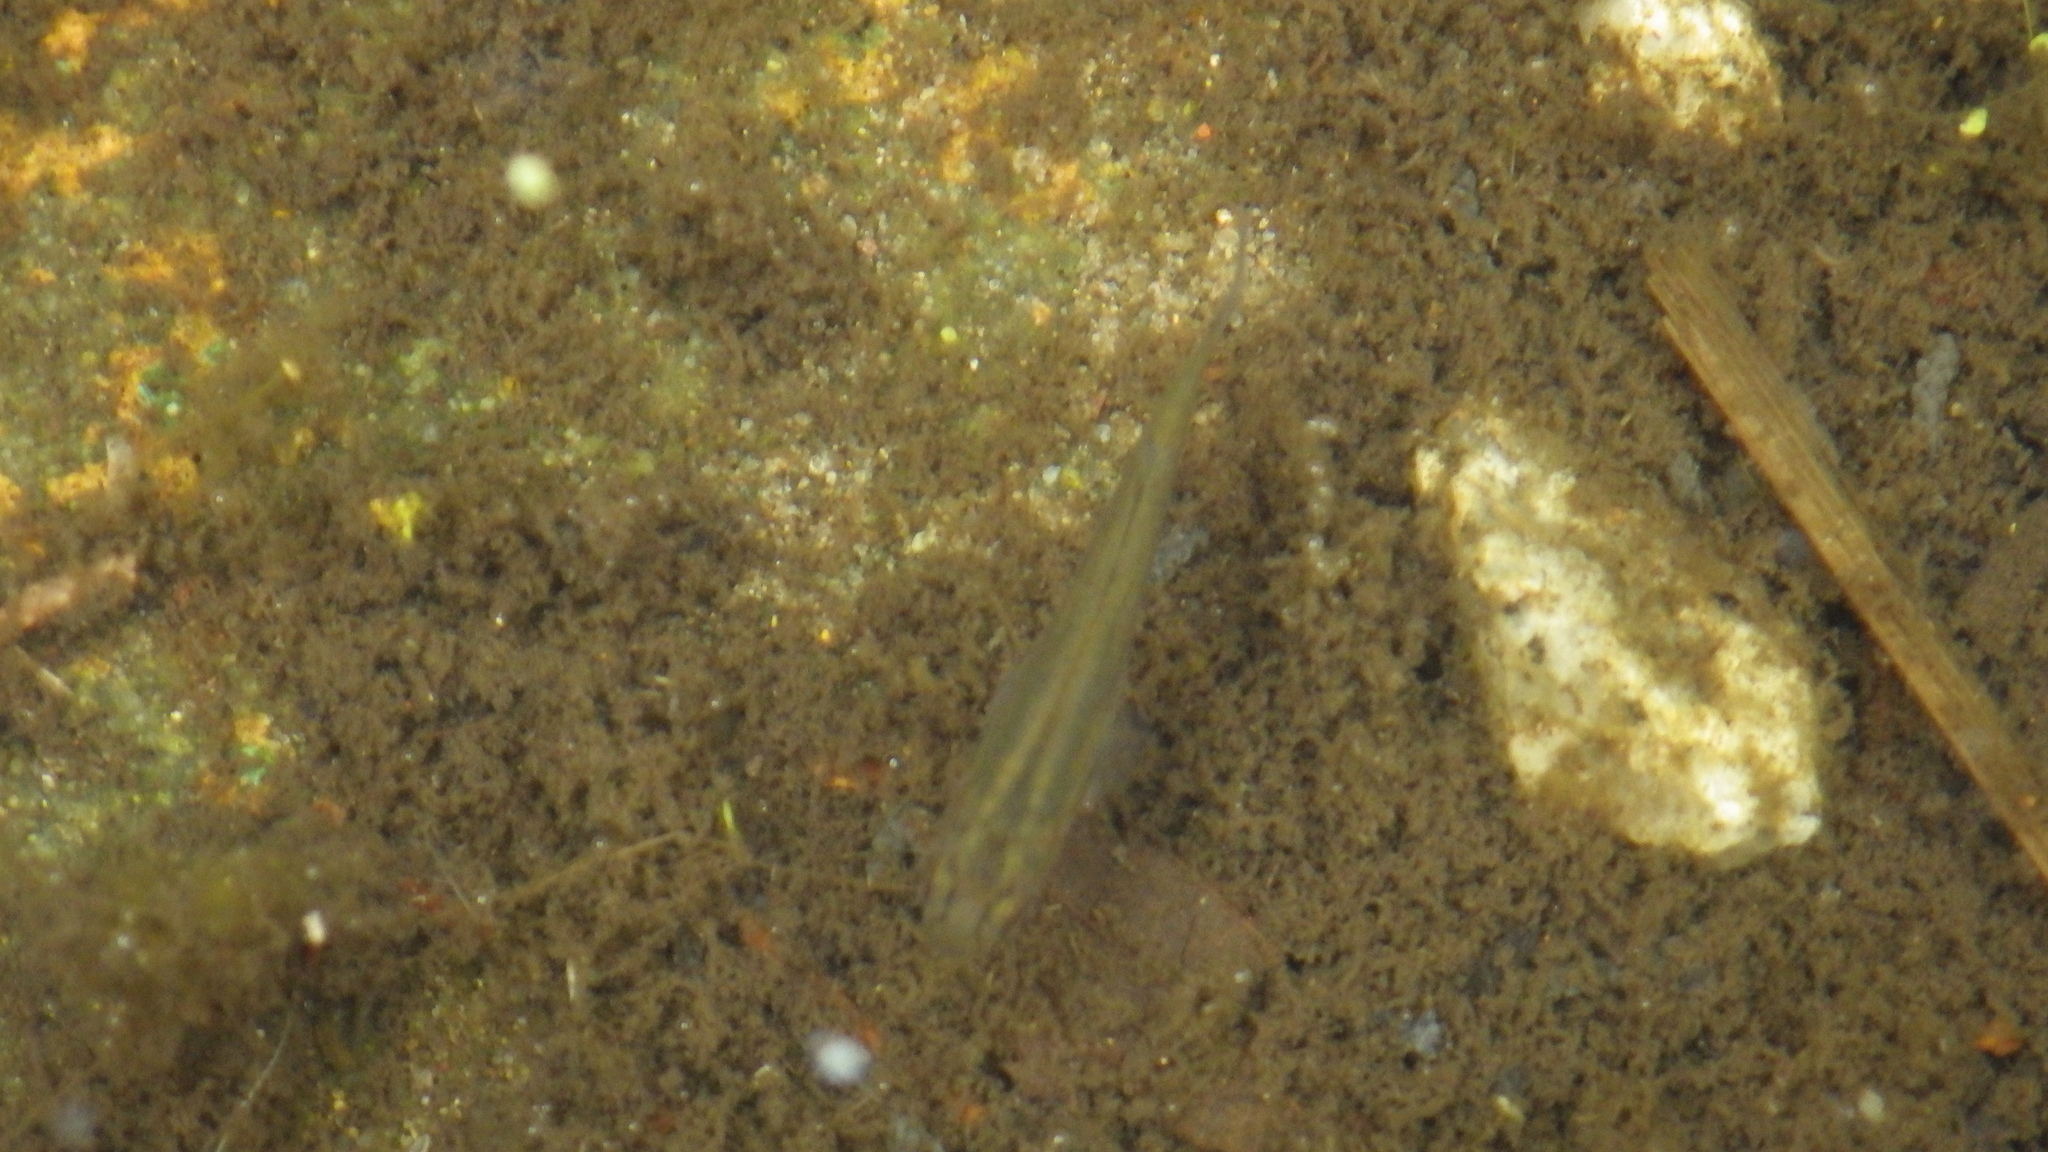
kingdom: Animalia
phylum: Chordata
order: Cyprinodontiformes
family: Poeciliidae
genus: Gambusia
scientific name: Gambusia affinis
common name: Mosquitofish
